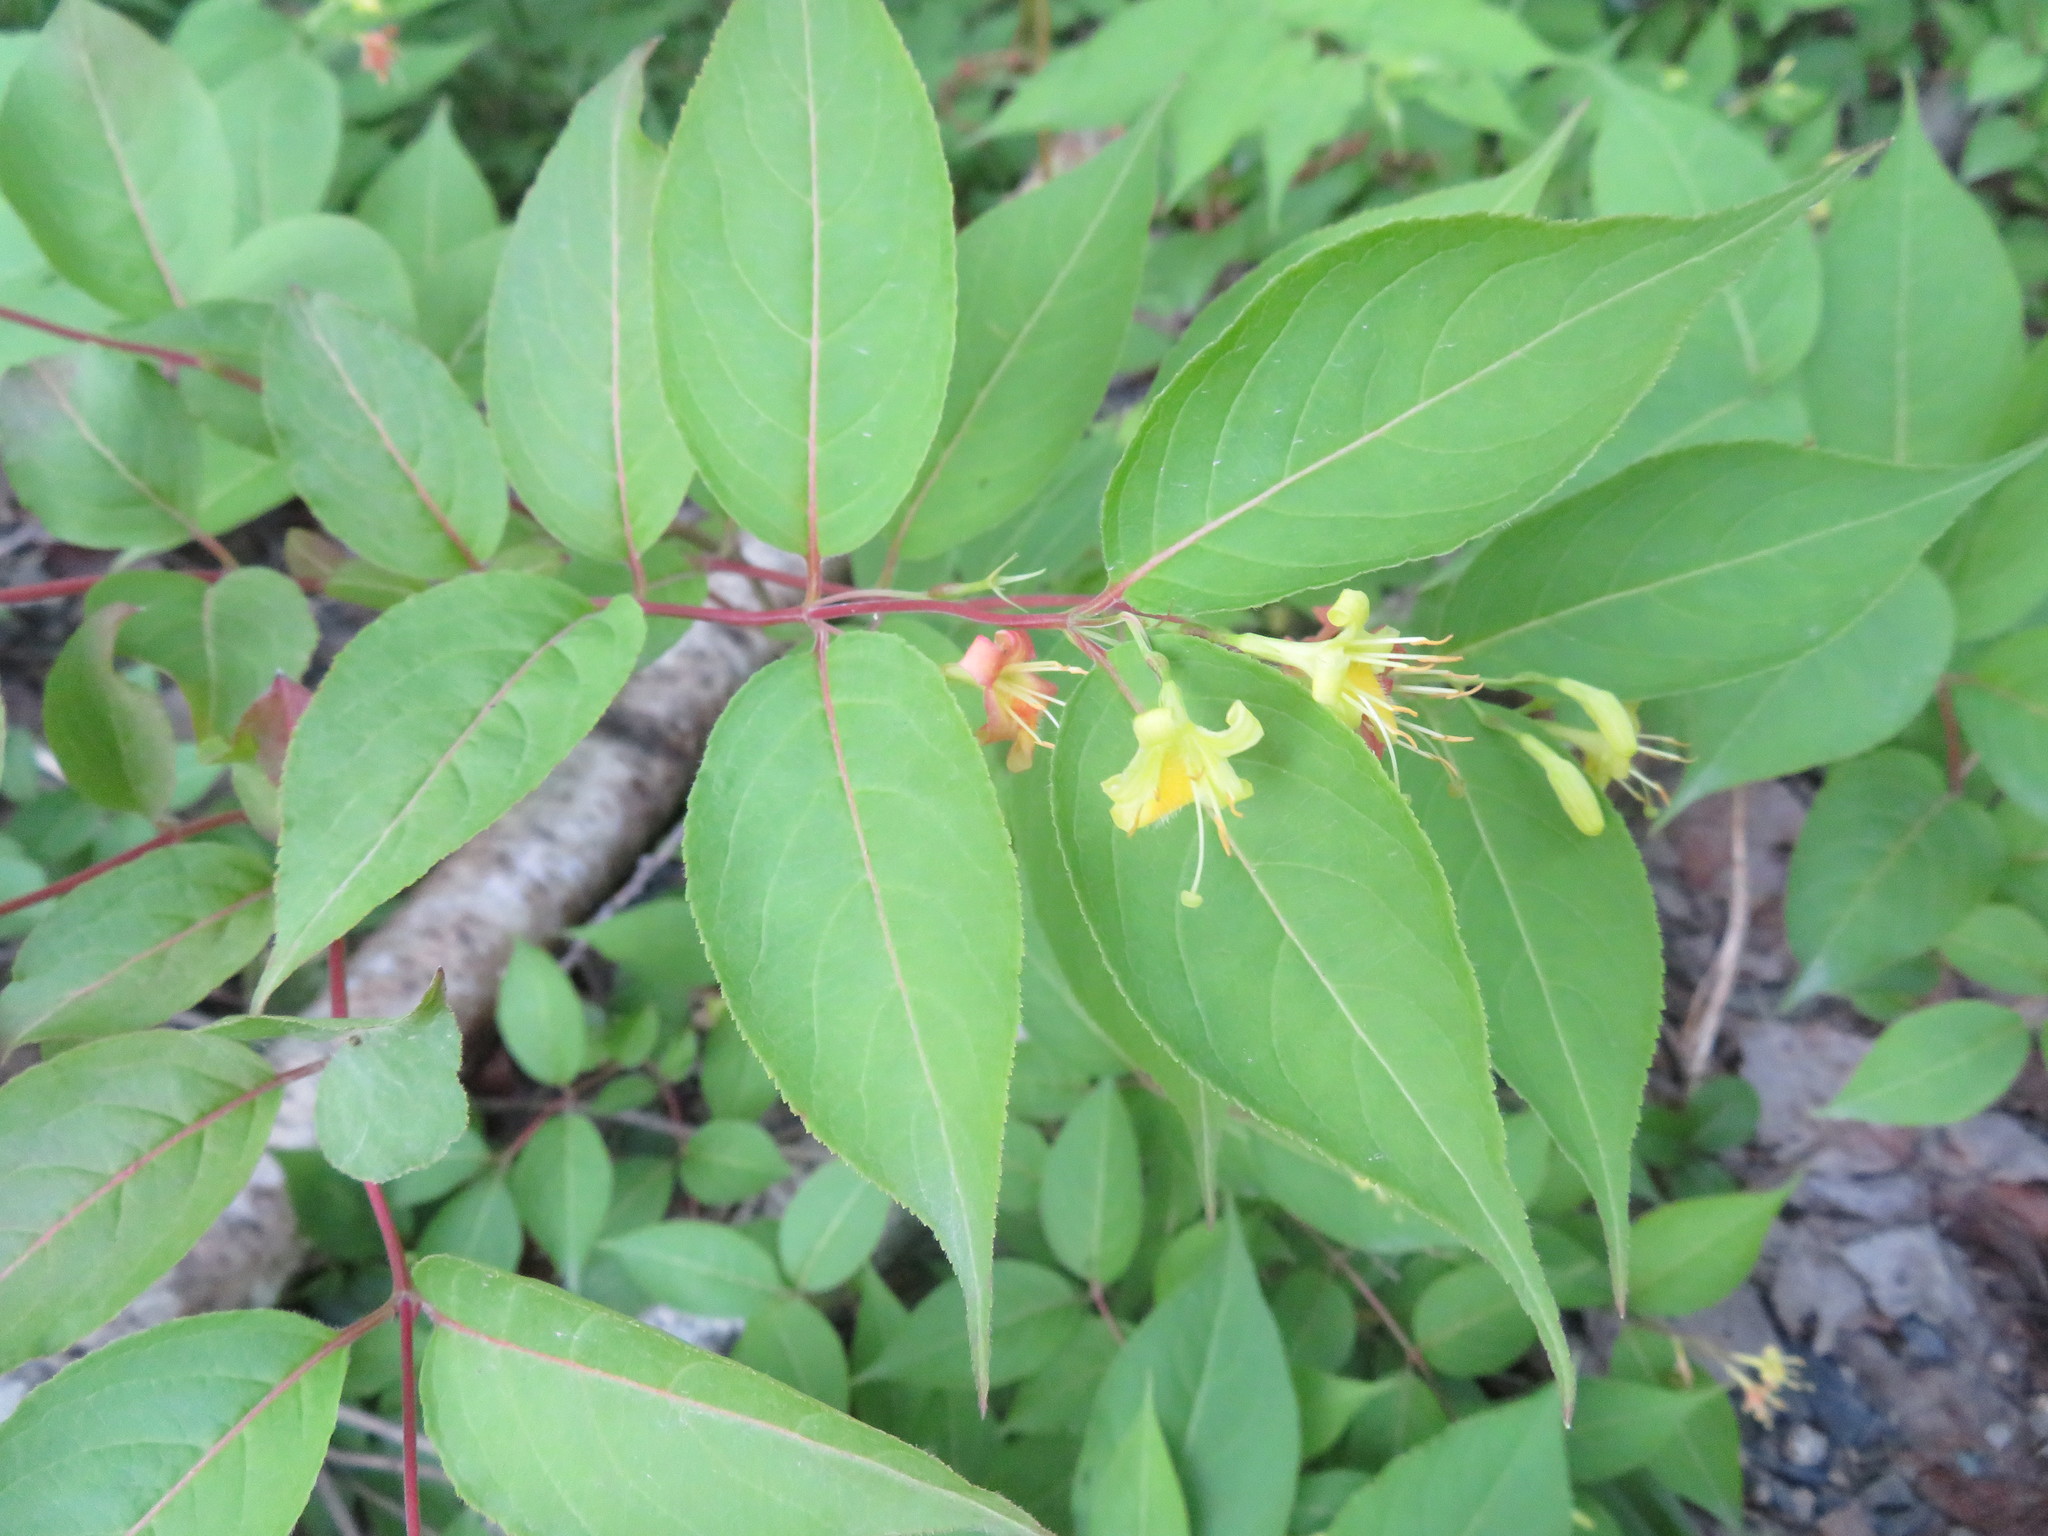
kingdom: Plantae
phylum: Tracheophyta
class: Magnoliopsida
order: Dipsacales
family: Caprifoliaceae
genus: Diervilla
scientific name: Diervilla lonicera
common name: Bush-honeysuckle
